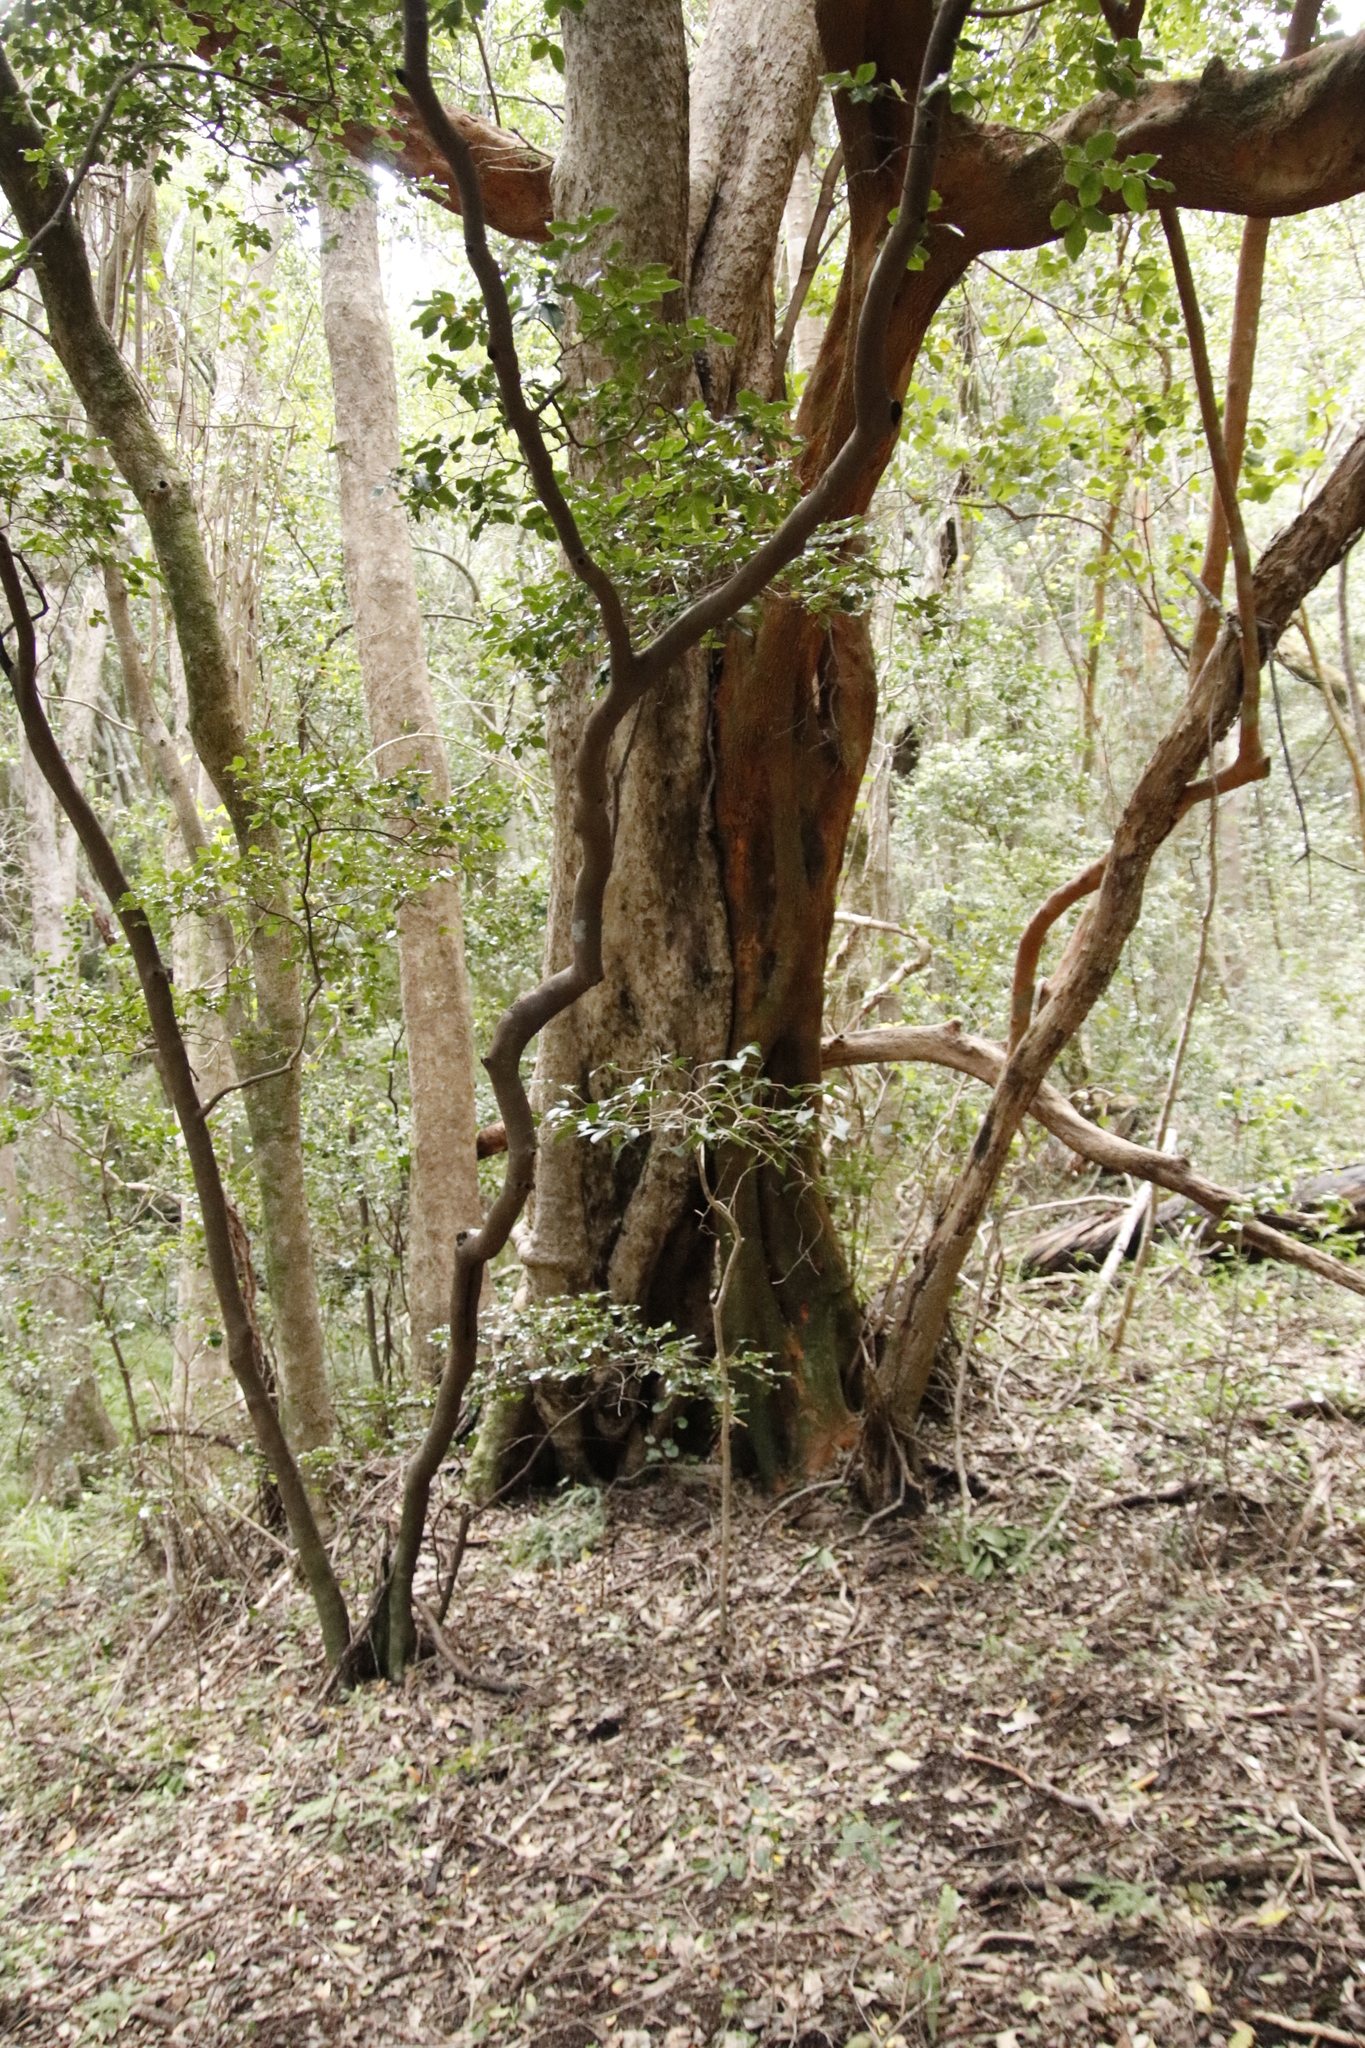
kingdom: Plantae
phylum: Tracheophyta
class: Magnoliopsida
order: Ericales
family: Ebenaceae
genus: Diospyros
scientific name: Diospyros whyteana
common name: Bladder-nut
